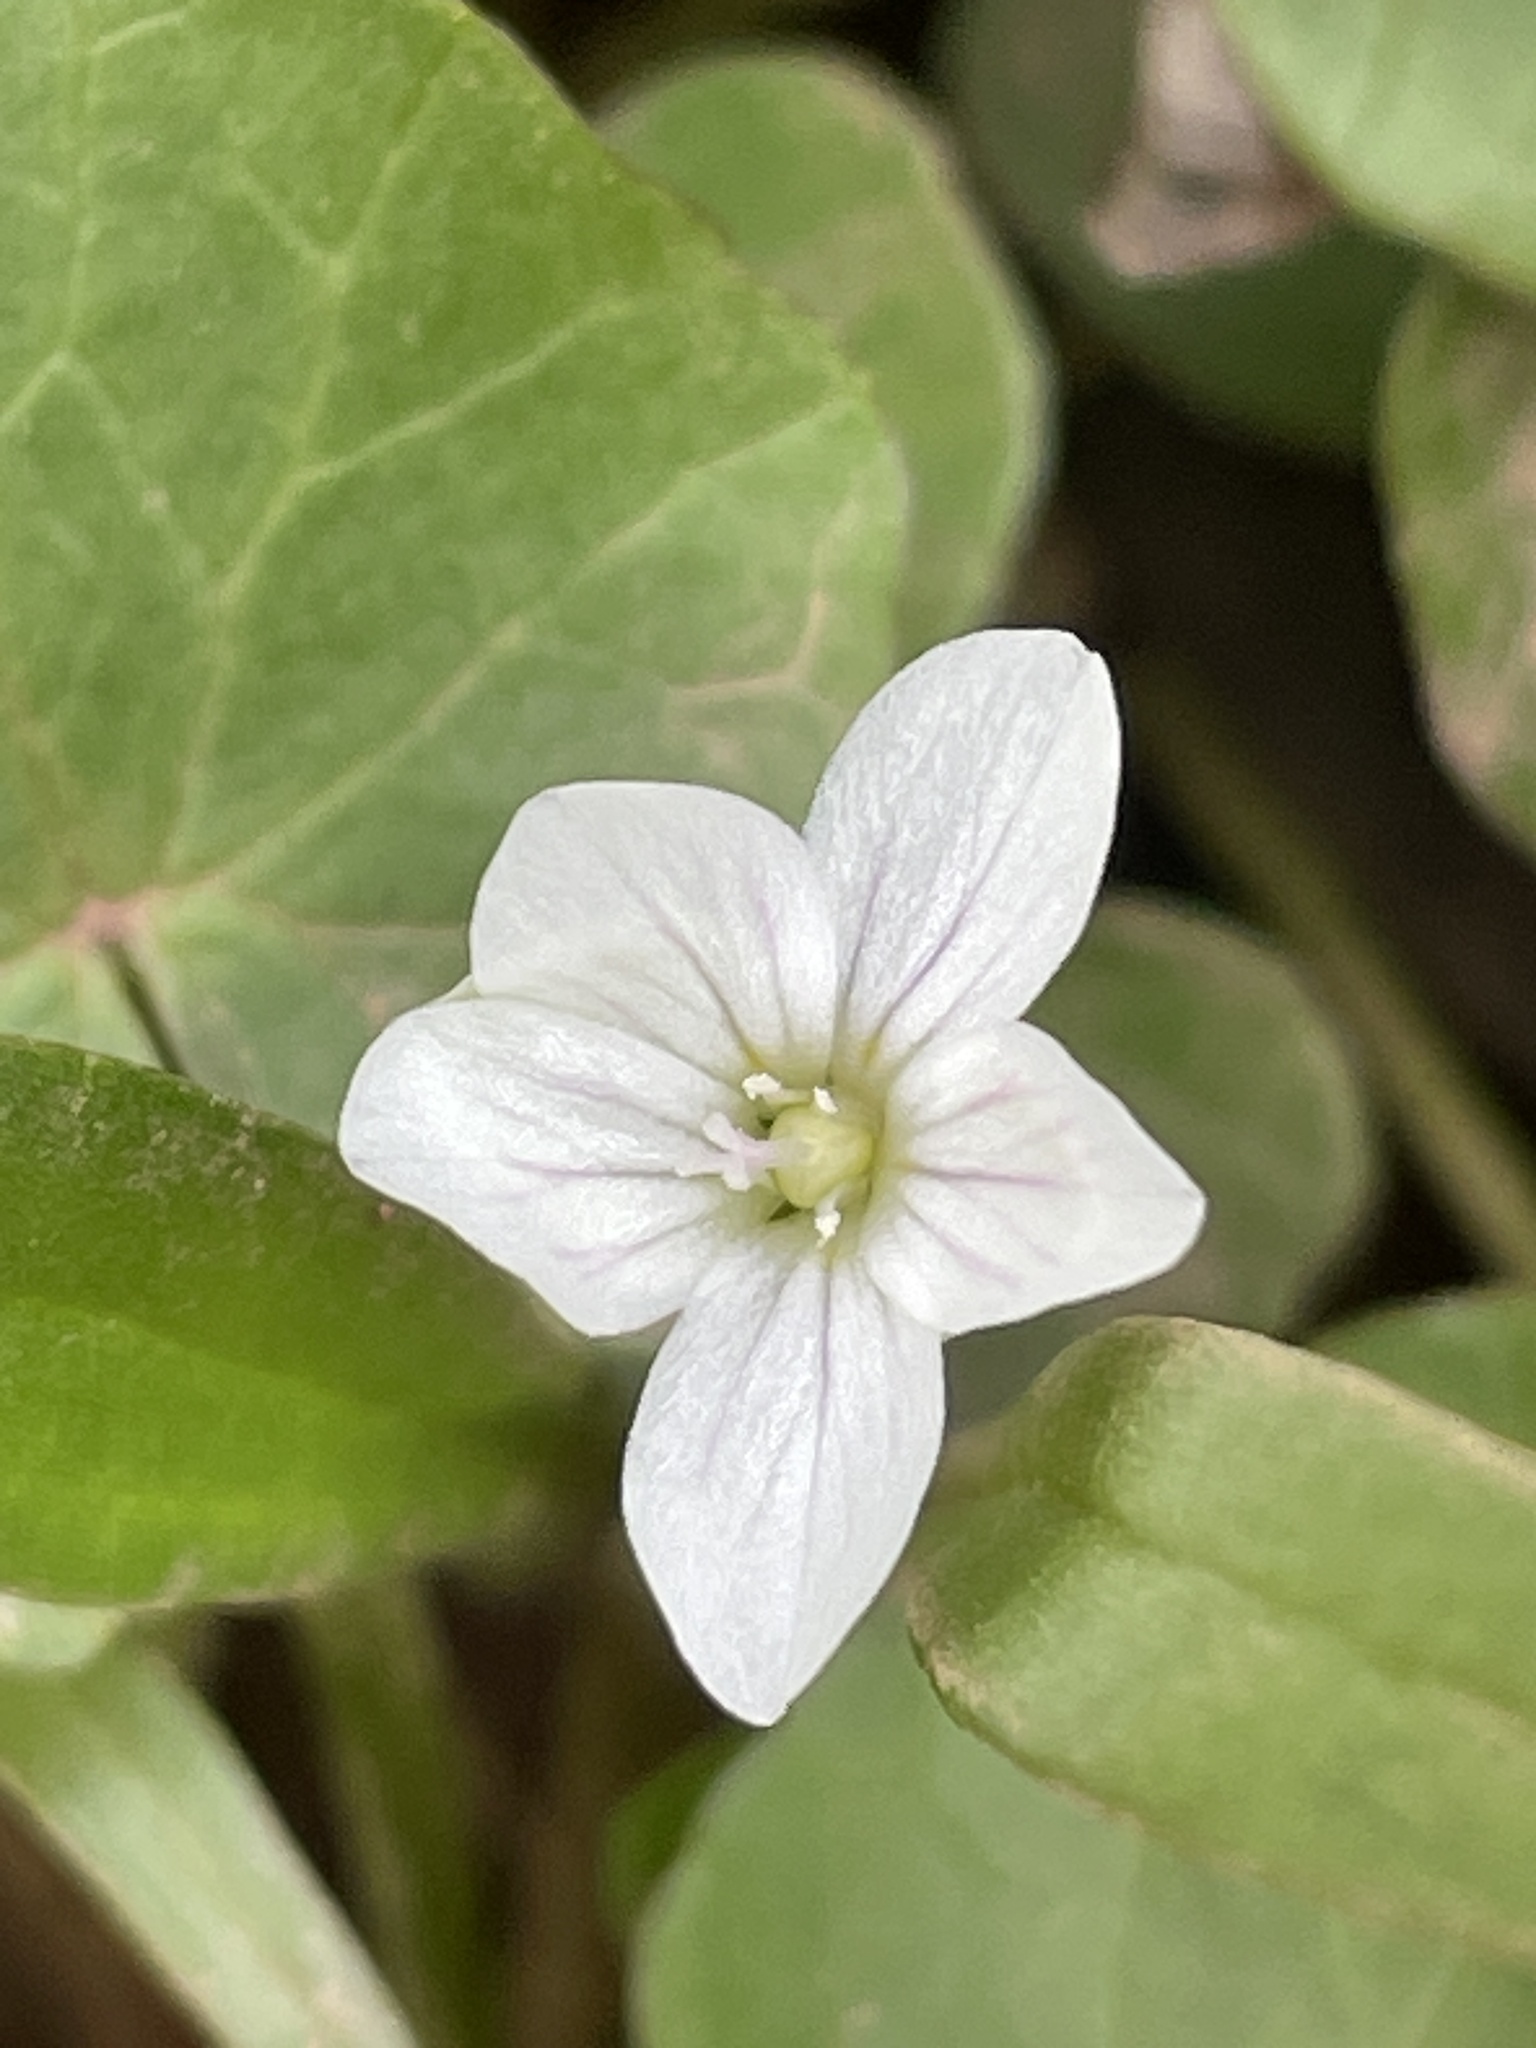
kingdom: Plantae
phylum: Tracheophyta
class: Magnoliopsida
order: Caryophyllales
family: Montiaceae
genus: Claytonia
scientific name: Claytonia virginica
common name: Virginia springbeauty
